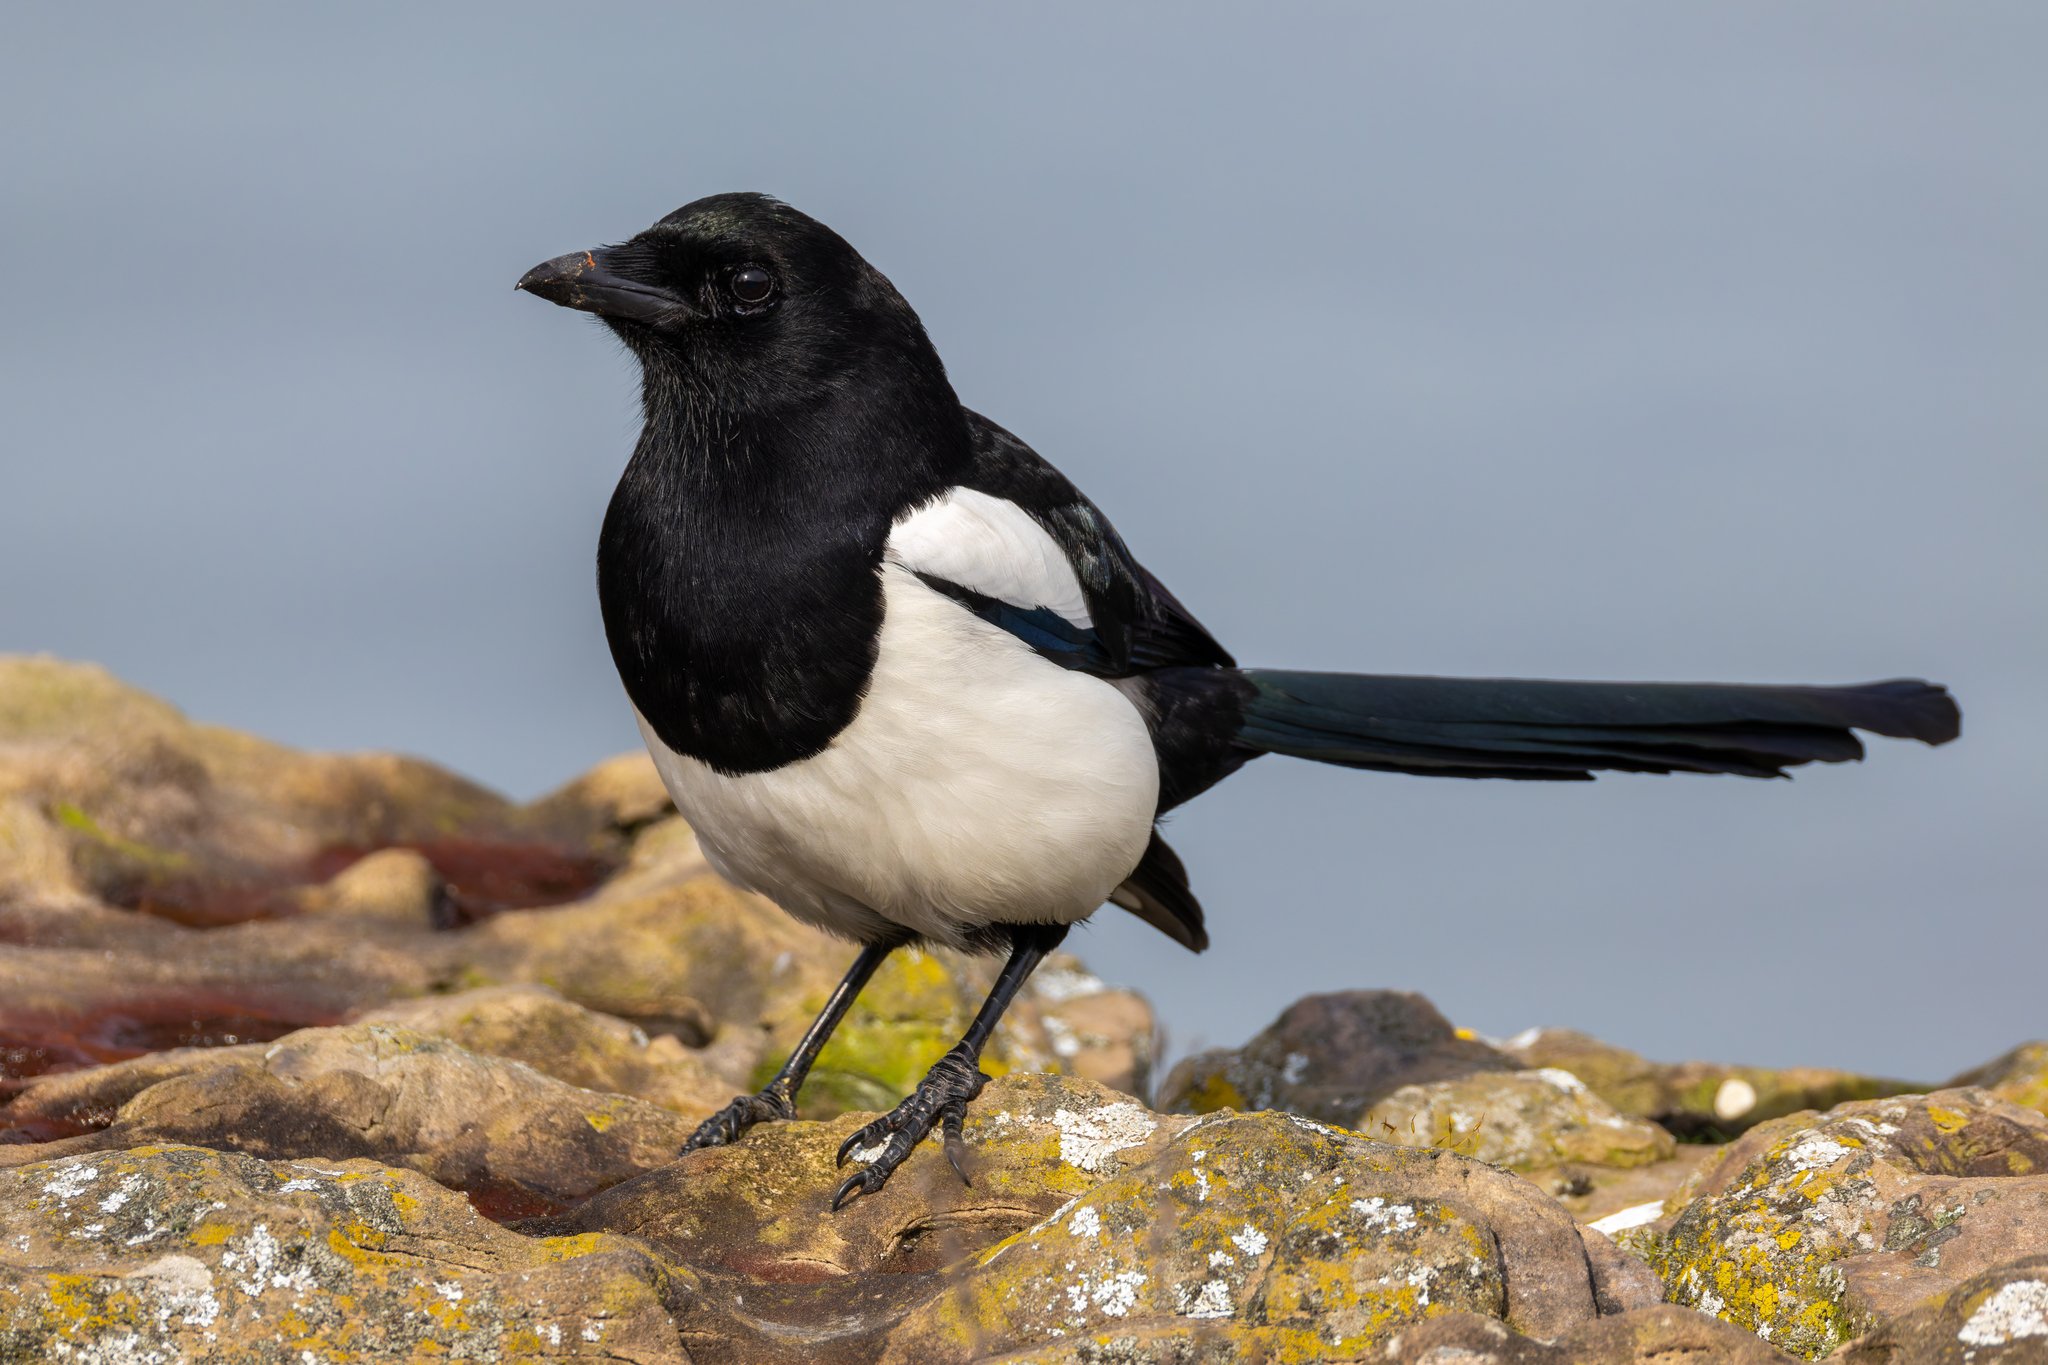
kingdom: Animalia
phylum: Chordata
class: Aves
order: Passeriformes
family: Corvidae
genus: Pica
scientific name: Pica pica
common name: Eurasian magpie
